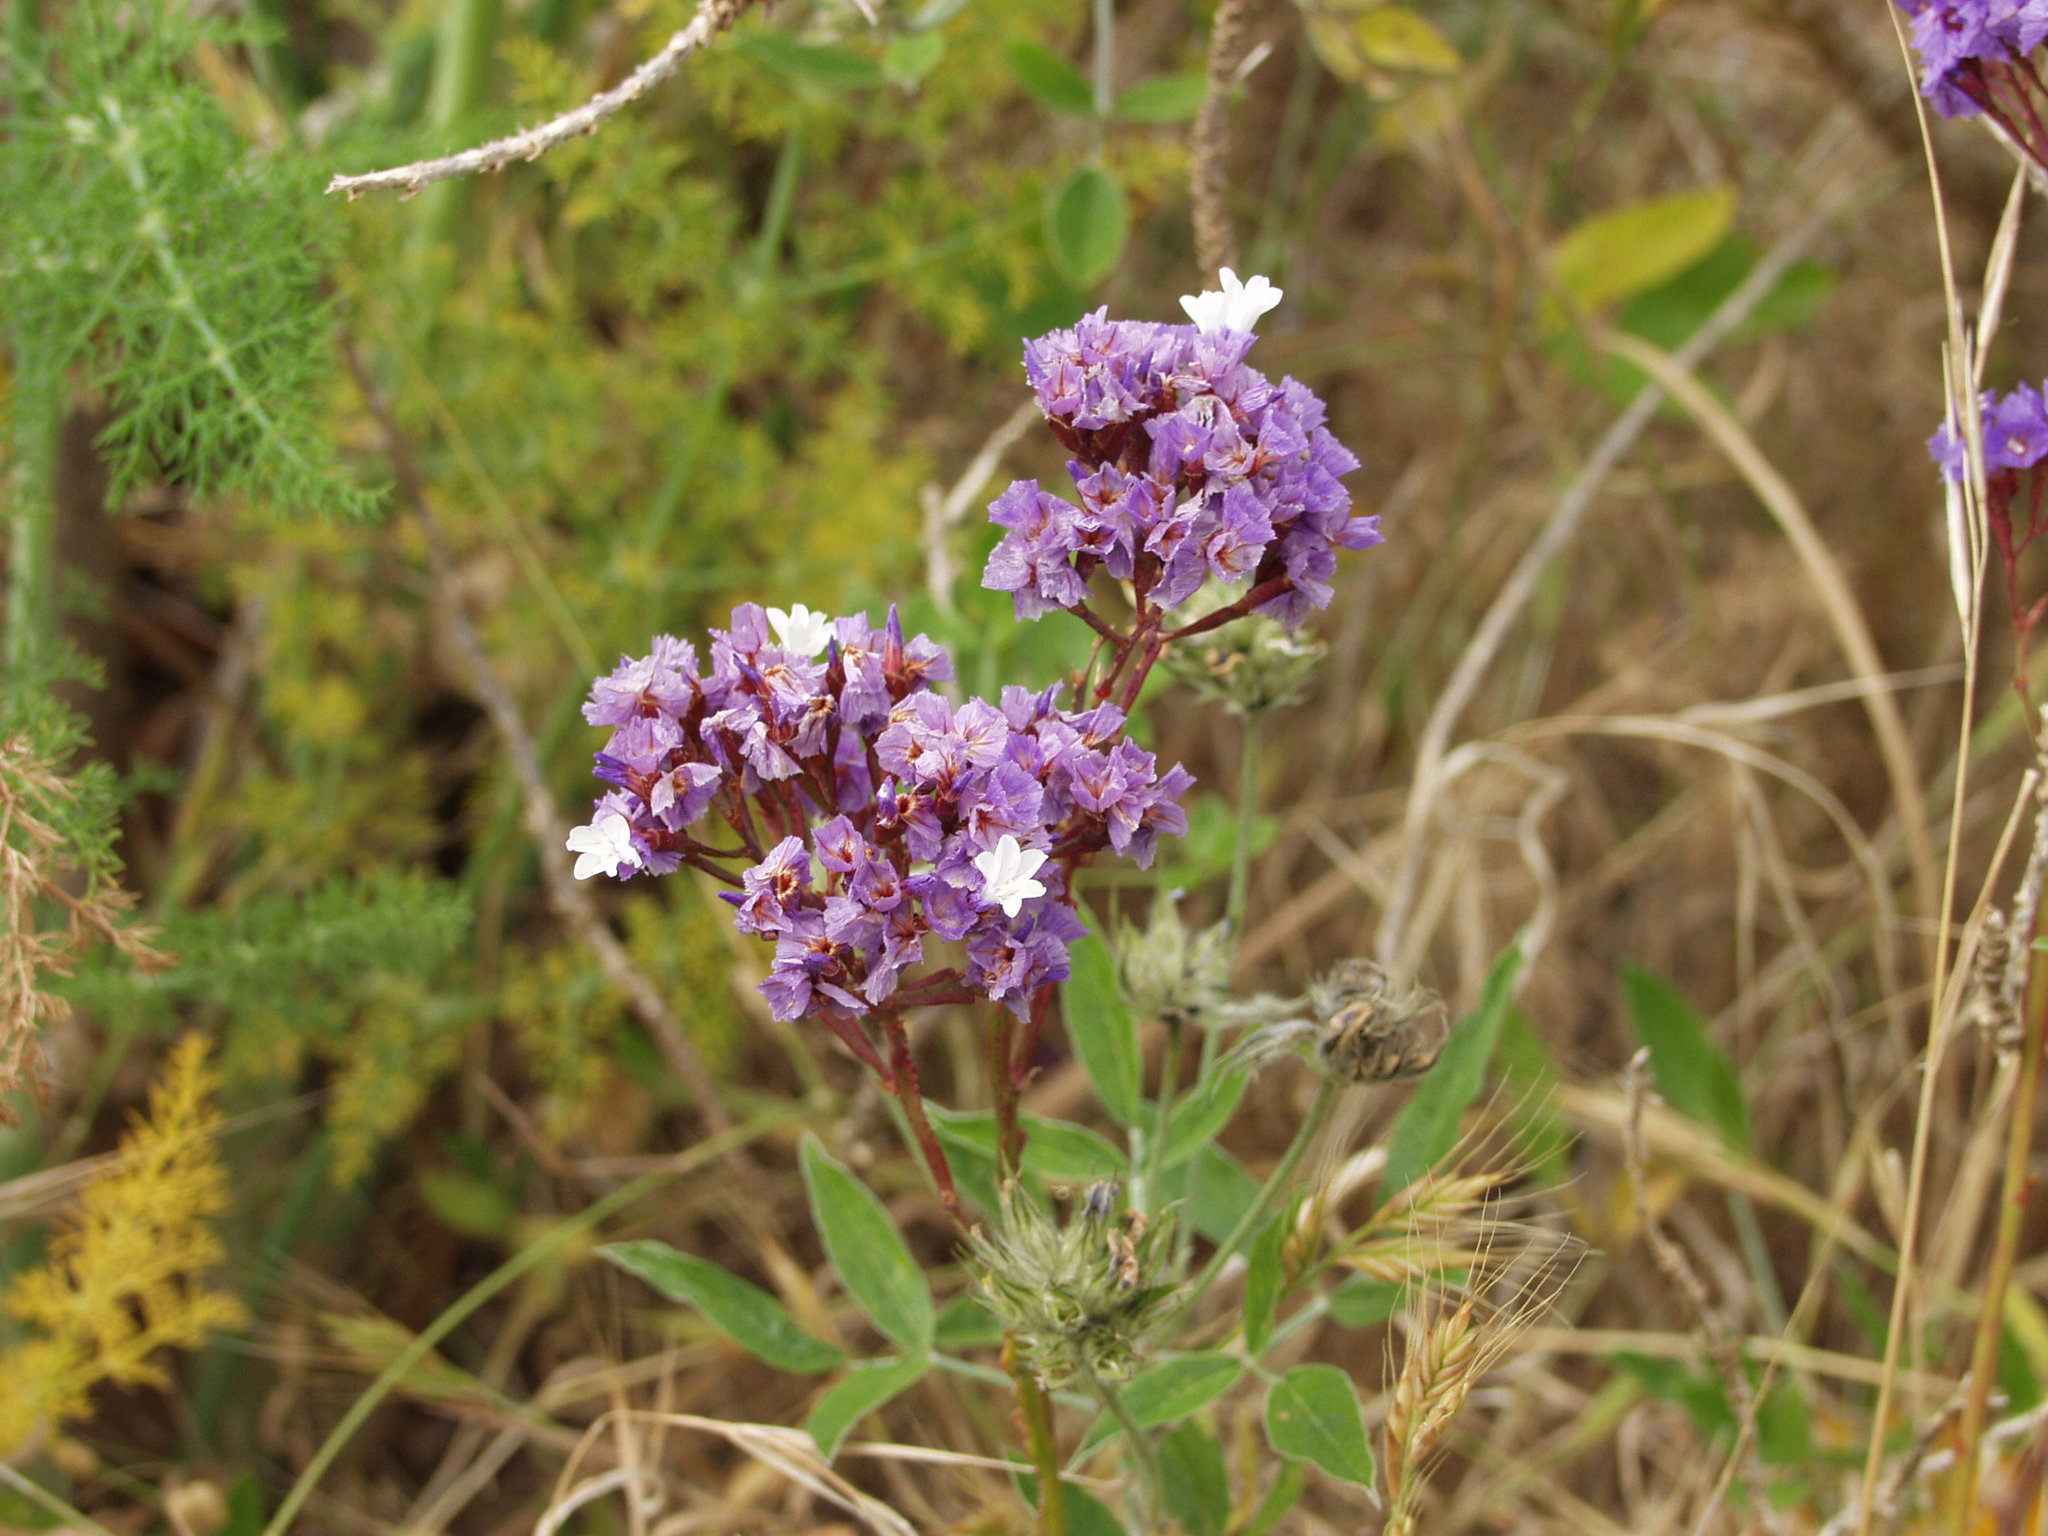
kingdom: Plantae
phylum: Tracheophyta
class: Magnoliopsida
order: Caryophyllales
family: Plumbaginaceae
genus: Limonium
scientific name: Limonium imbricatum
